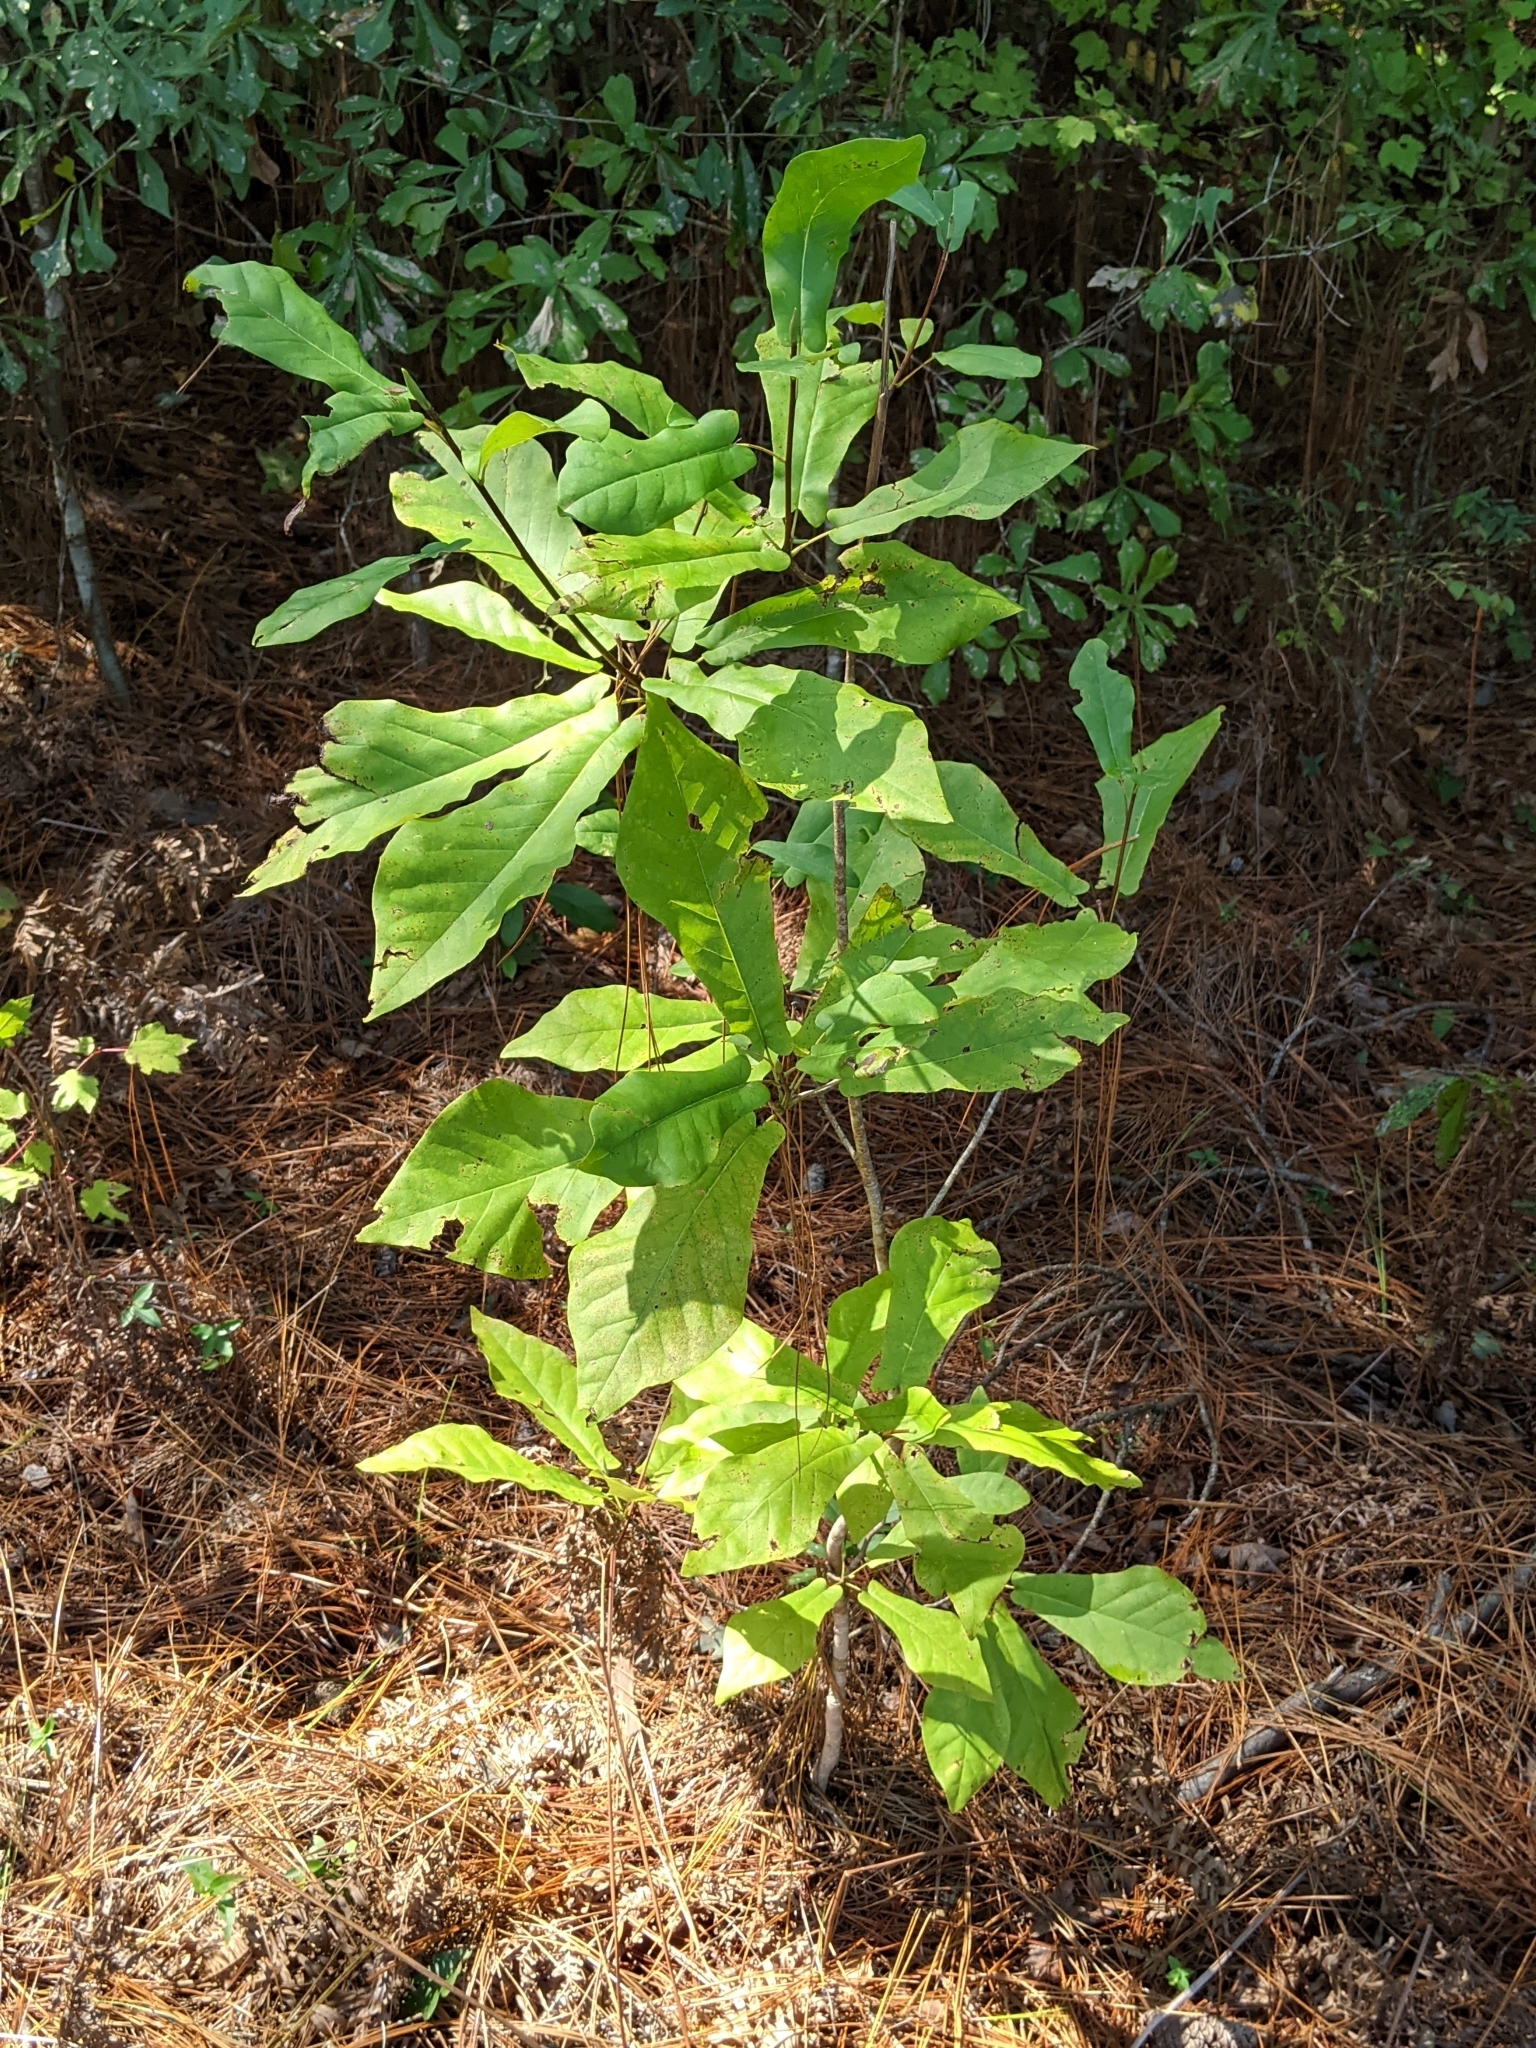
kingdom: Plantae
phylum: Tracheophyta
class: Magnoliopsida
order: Magnoliales
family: Magnoliaceae
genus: Magnolia
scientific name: Magnolia fraseri
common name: Fraser's magnolia
